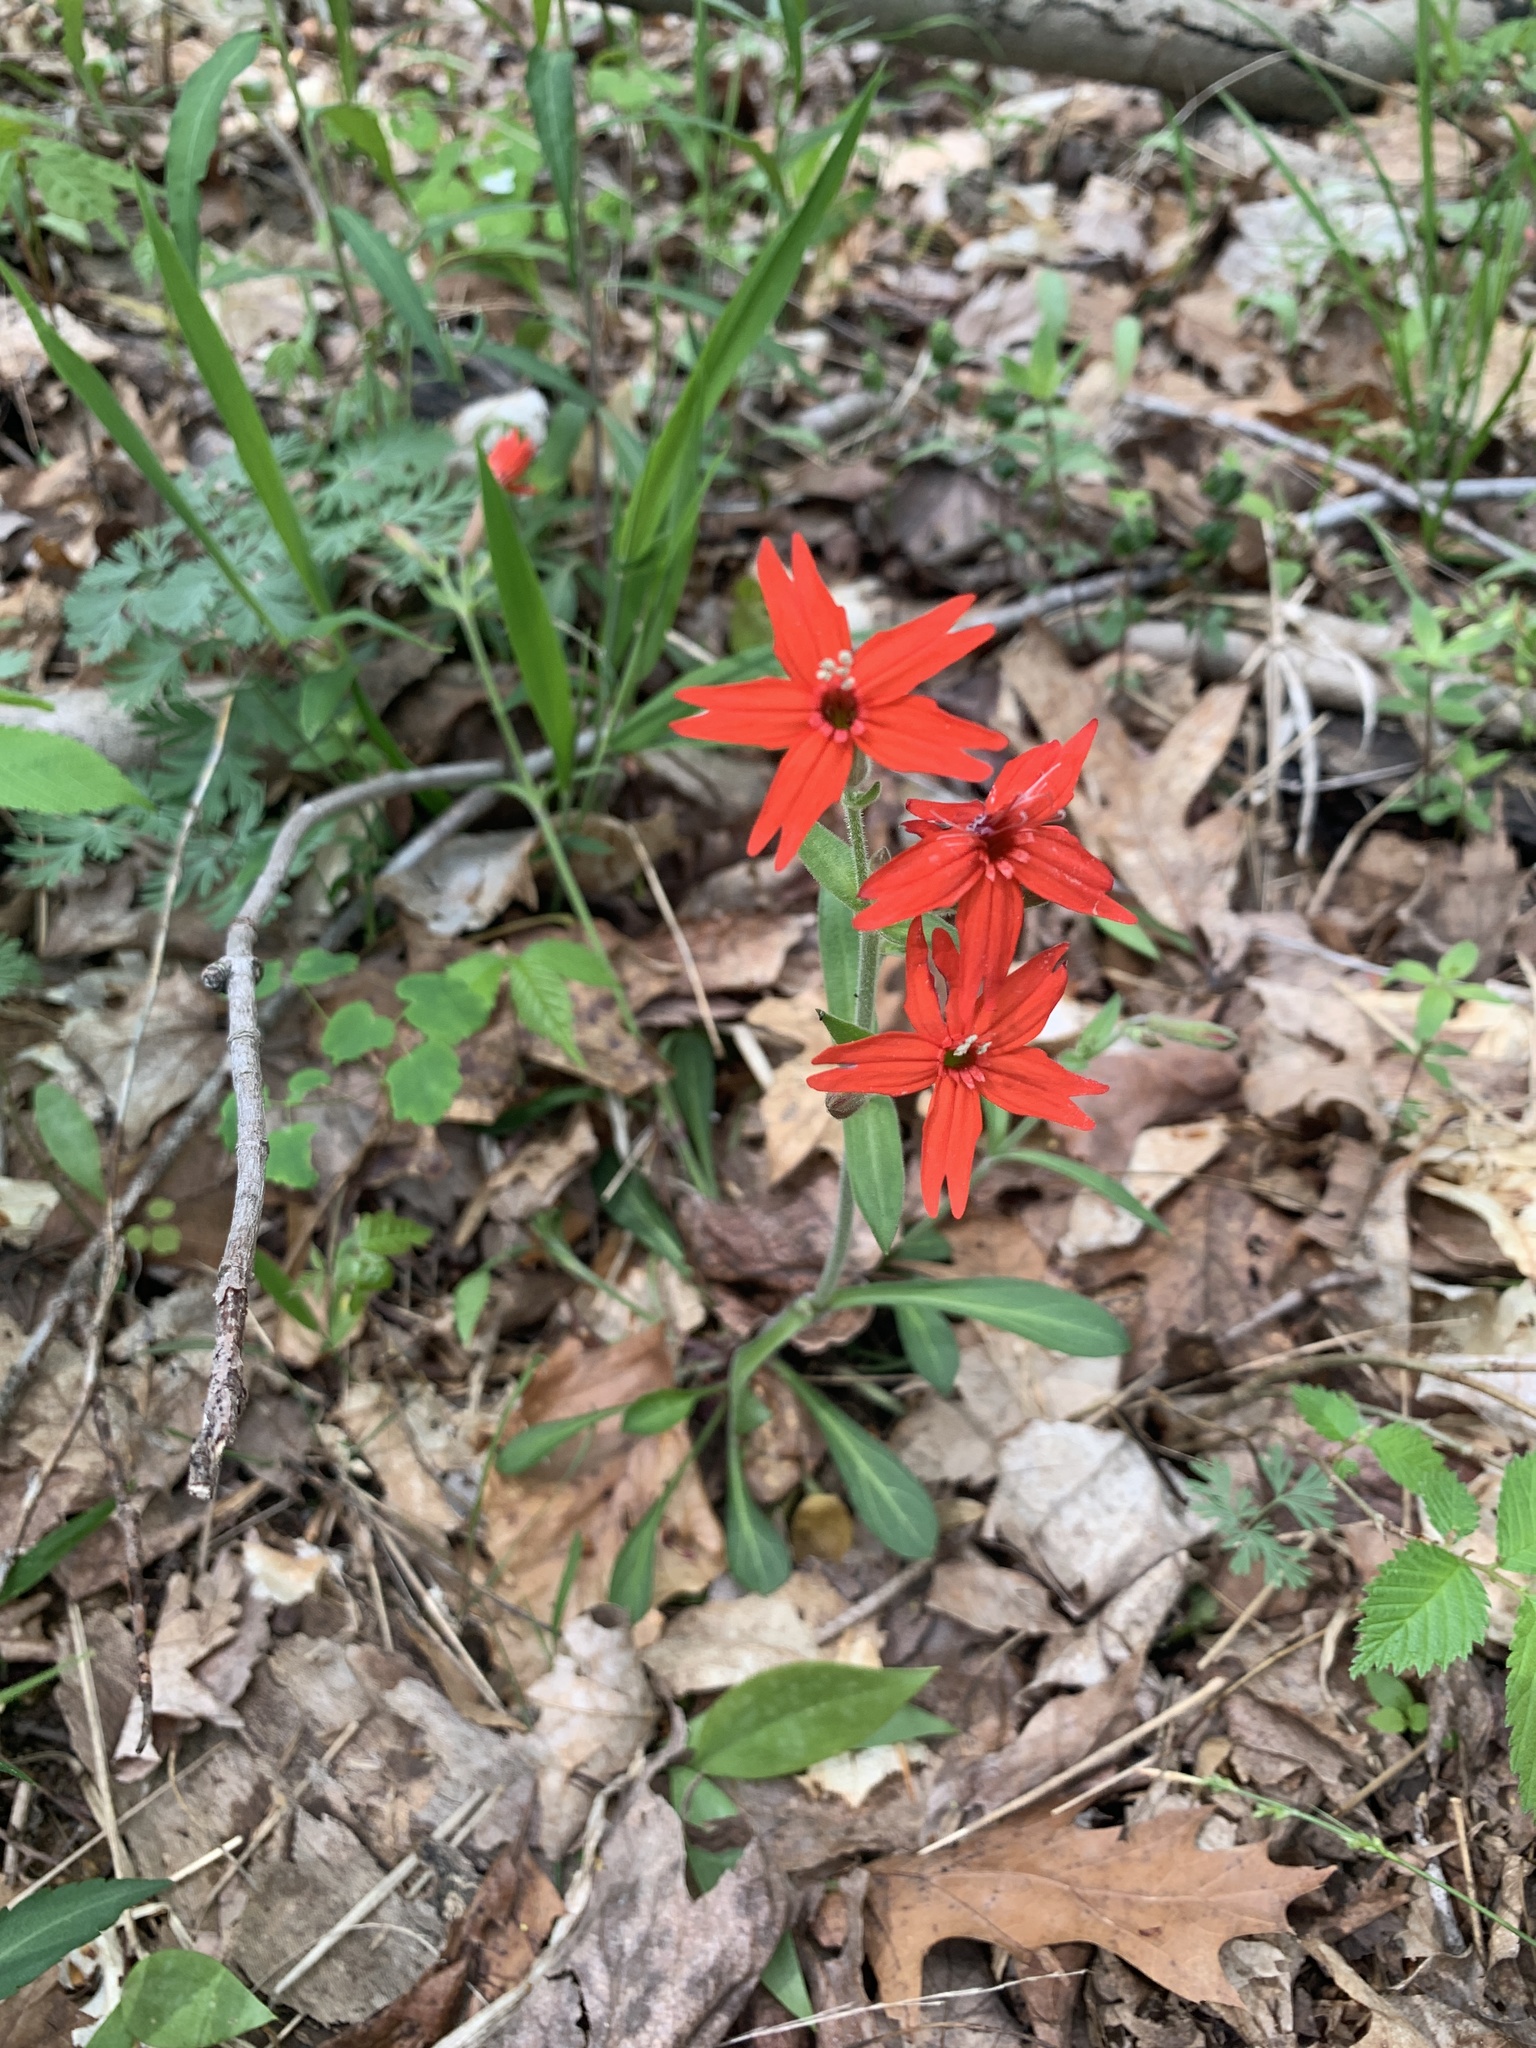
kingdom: Plantae
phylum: Tracheophyta
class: Magnoliopsida
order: Caryophyllales
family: Caryophyllaceae
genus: Silene
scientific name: Silene virginica
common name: Fire-pink
